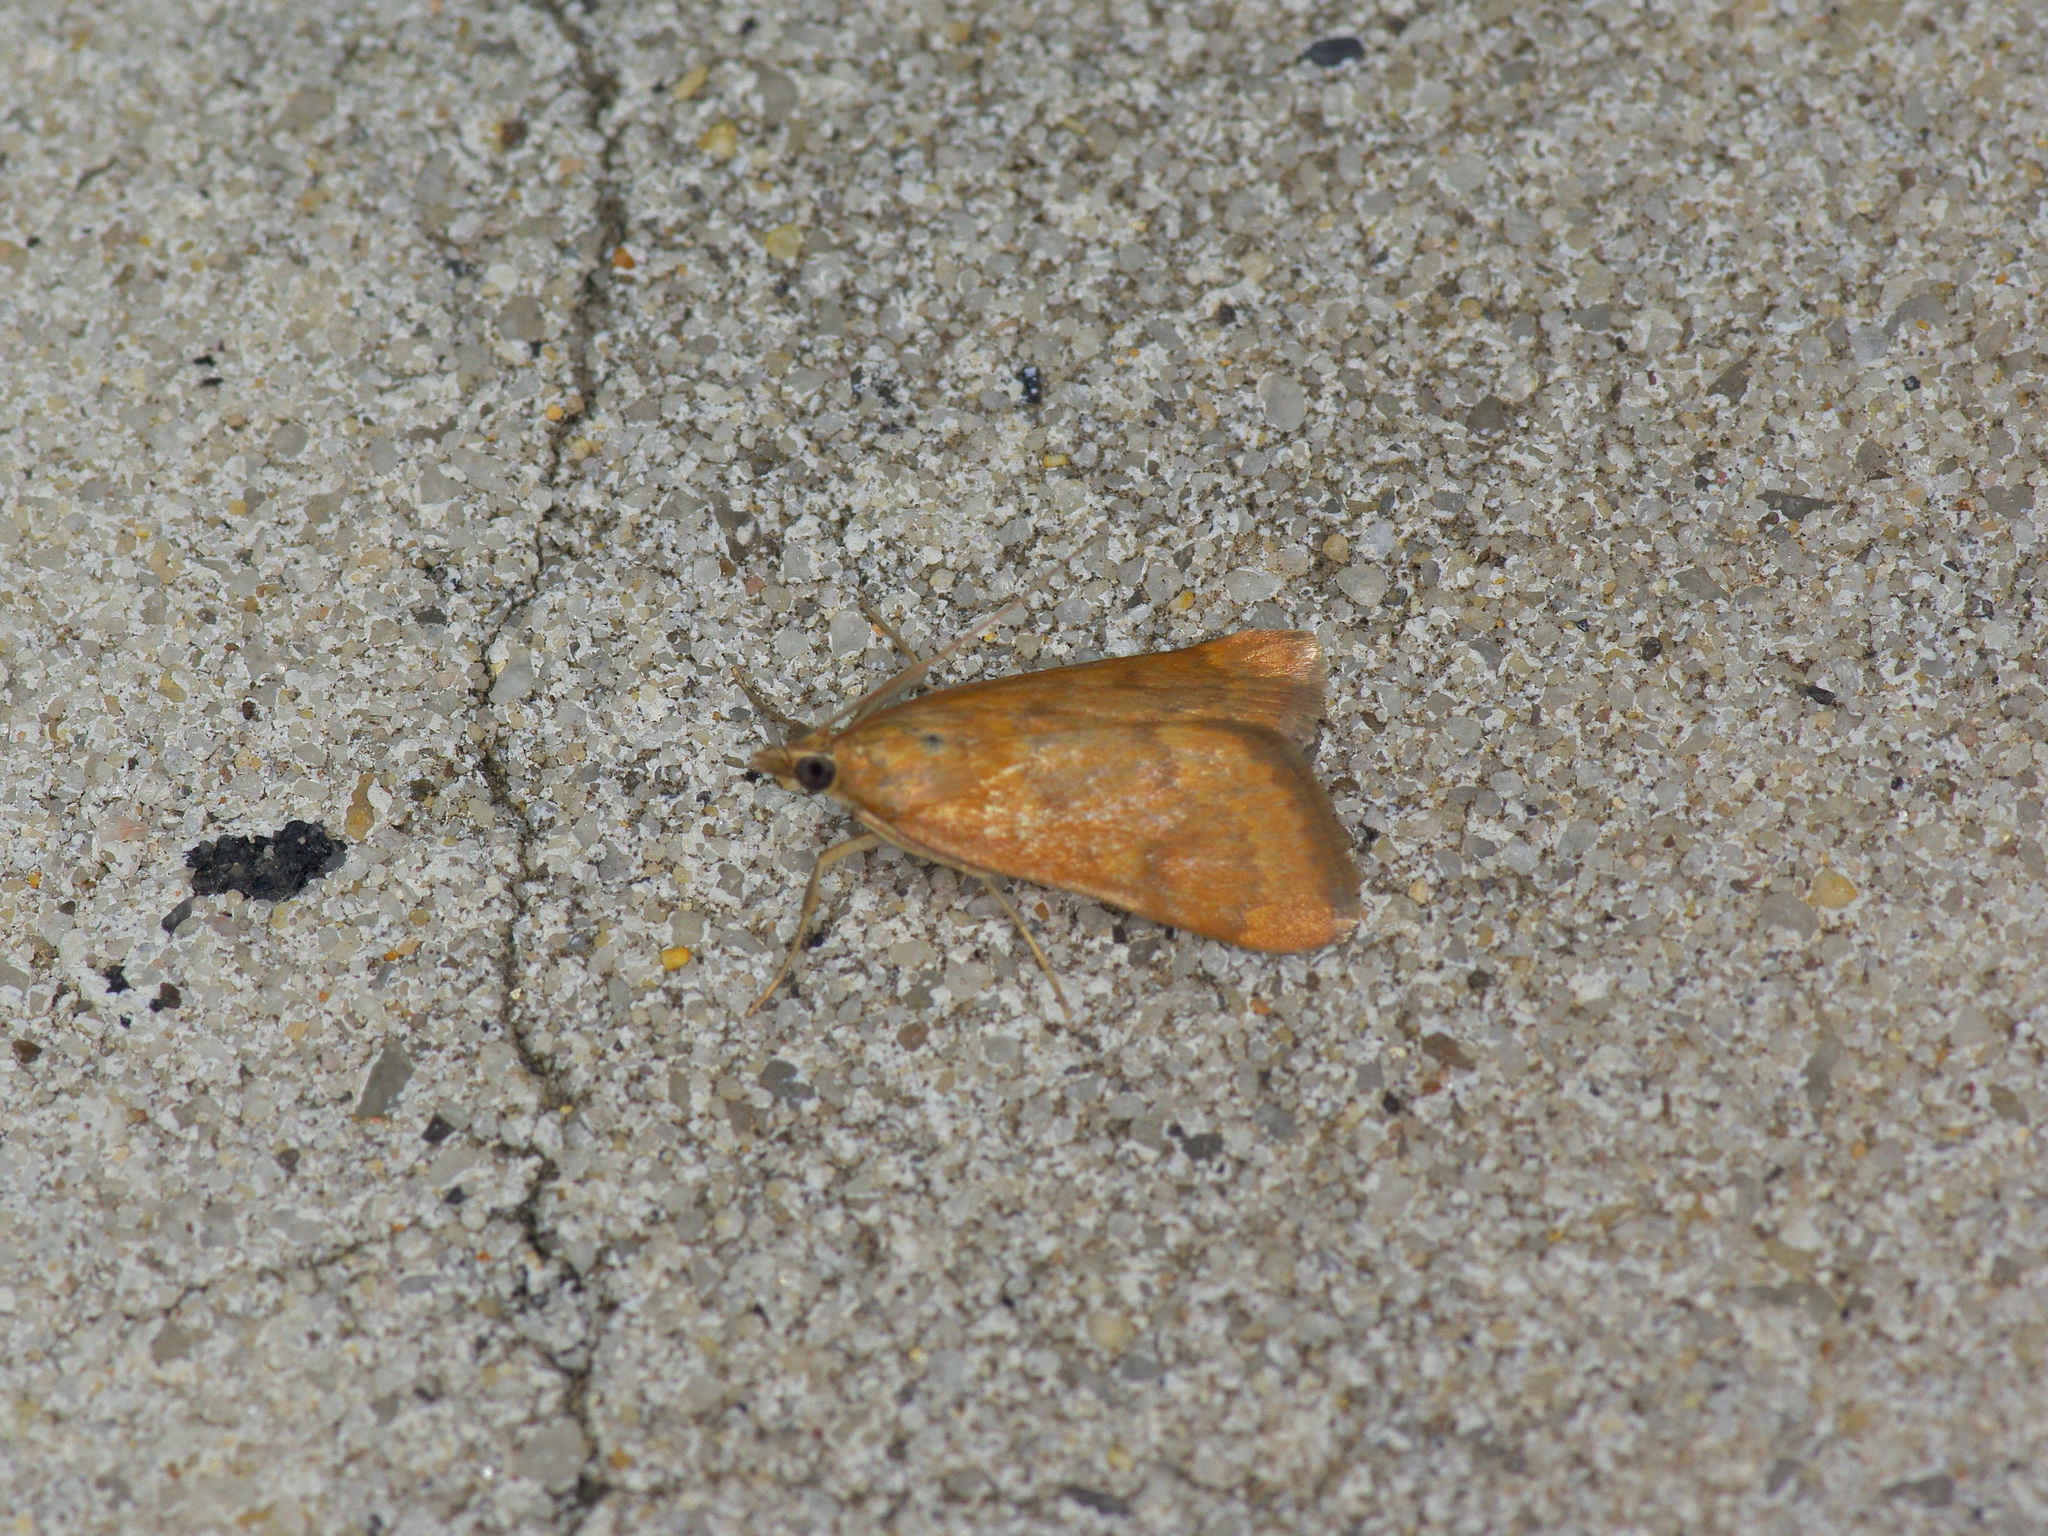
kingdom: Animalia
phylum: Arthropoda
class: Insecta
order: Lepidoptera
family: Crambidae
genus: Achyra
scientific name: Achyra rantalis
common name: Garden webworm
